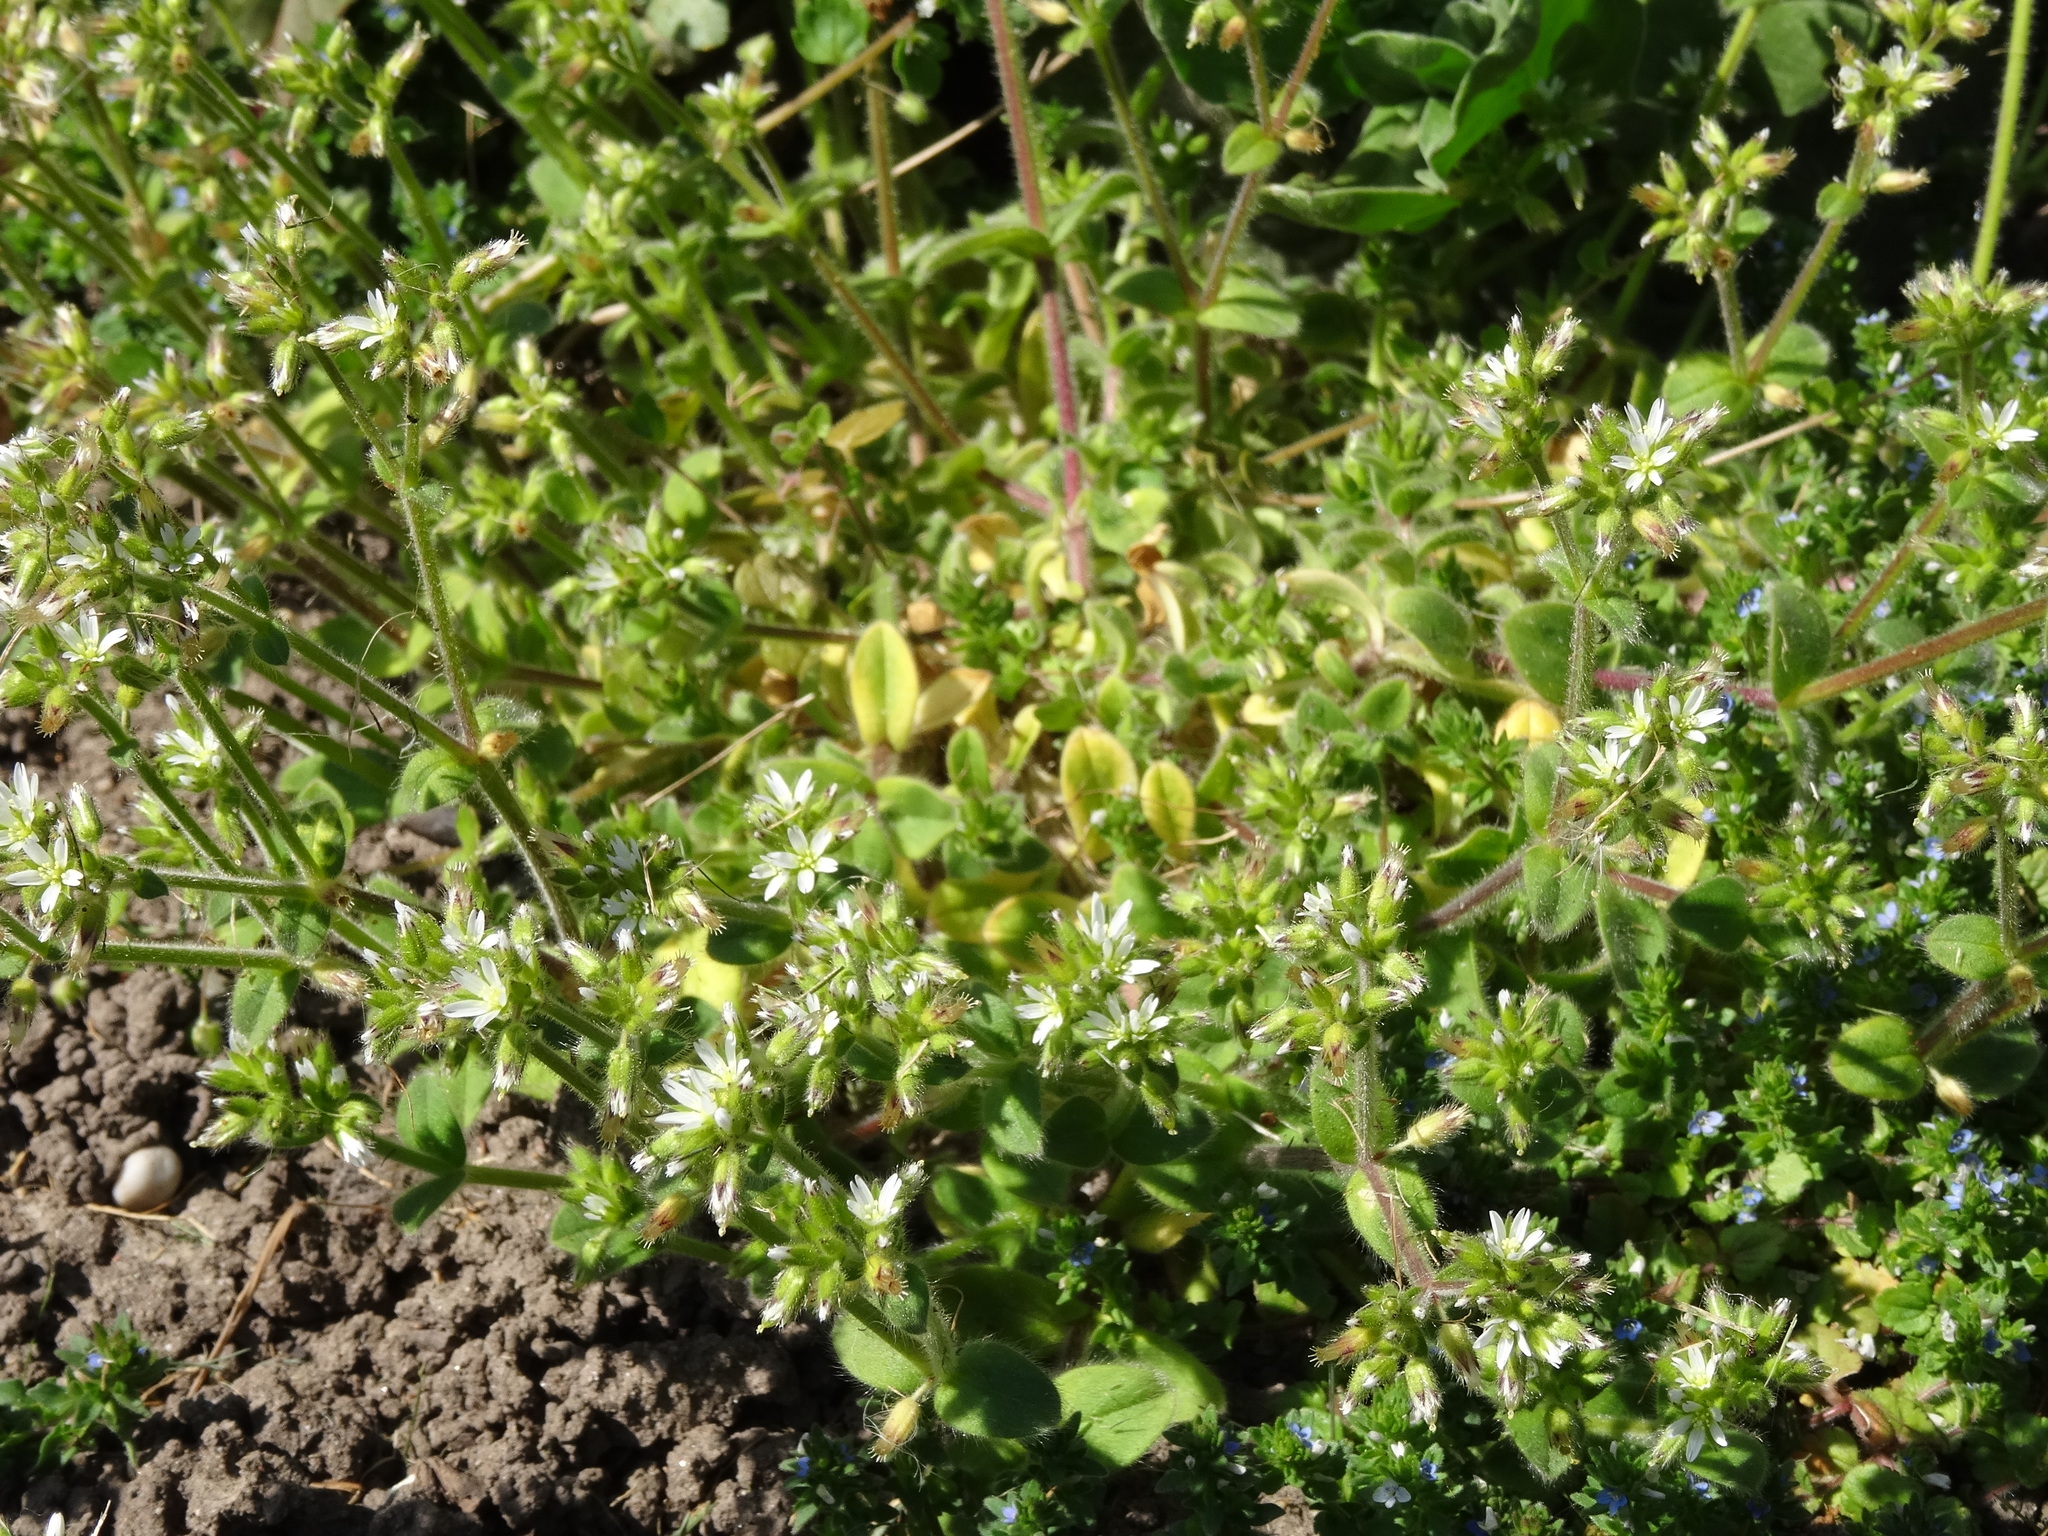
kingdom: Plantae
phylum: Tracheophyta
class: Magnoliopsida
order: Caryophyllales
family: Caryophyllaceae
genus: Cerastium
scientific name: Cerastium glomeratum
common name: Sticky chickweed
